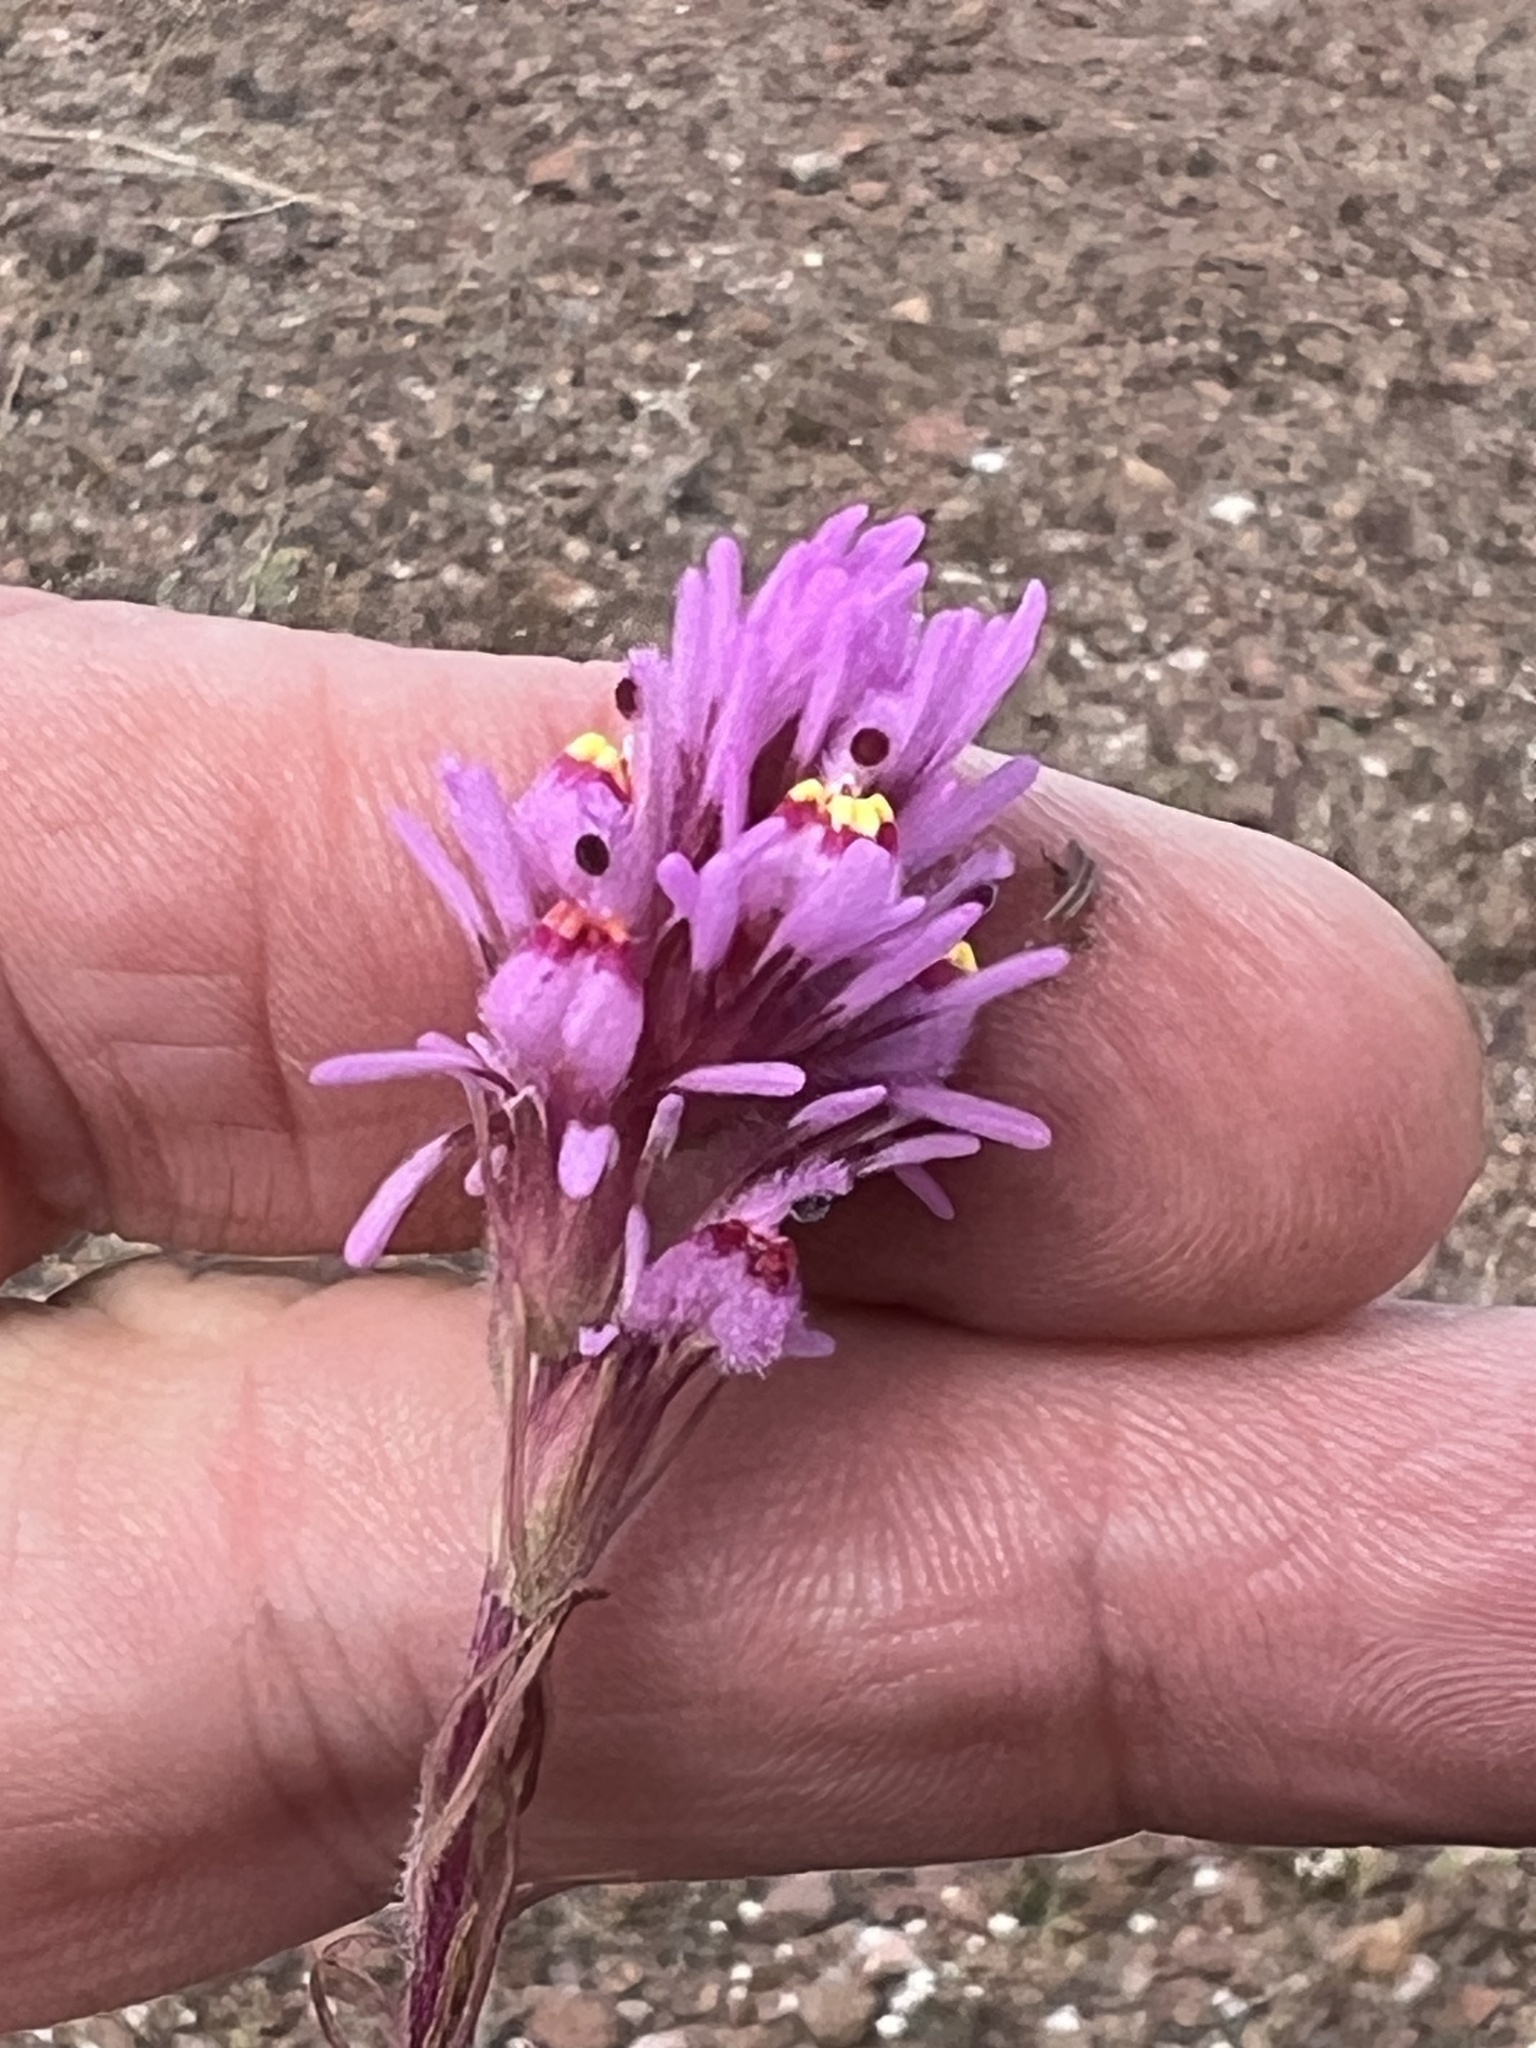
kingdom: Plantae
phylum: Tracheophyta
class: Magnoliopsida
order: Lamiales
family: Orobanchaceae
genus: Castilleja
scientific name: Castilleja exserta
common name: Purple owl-clover
